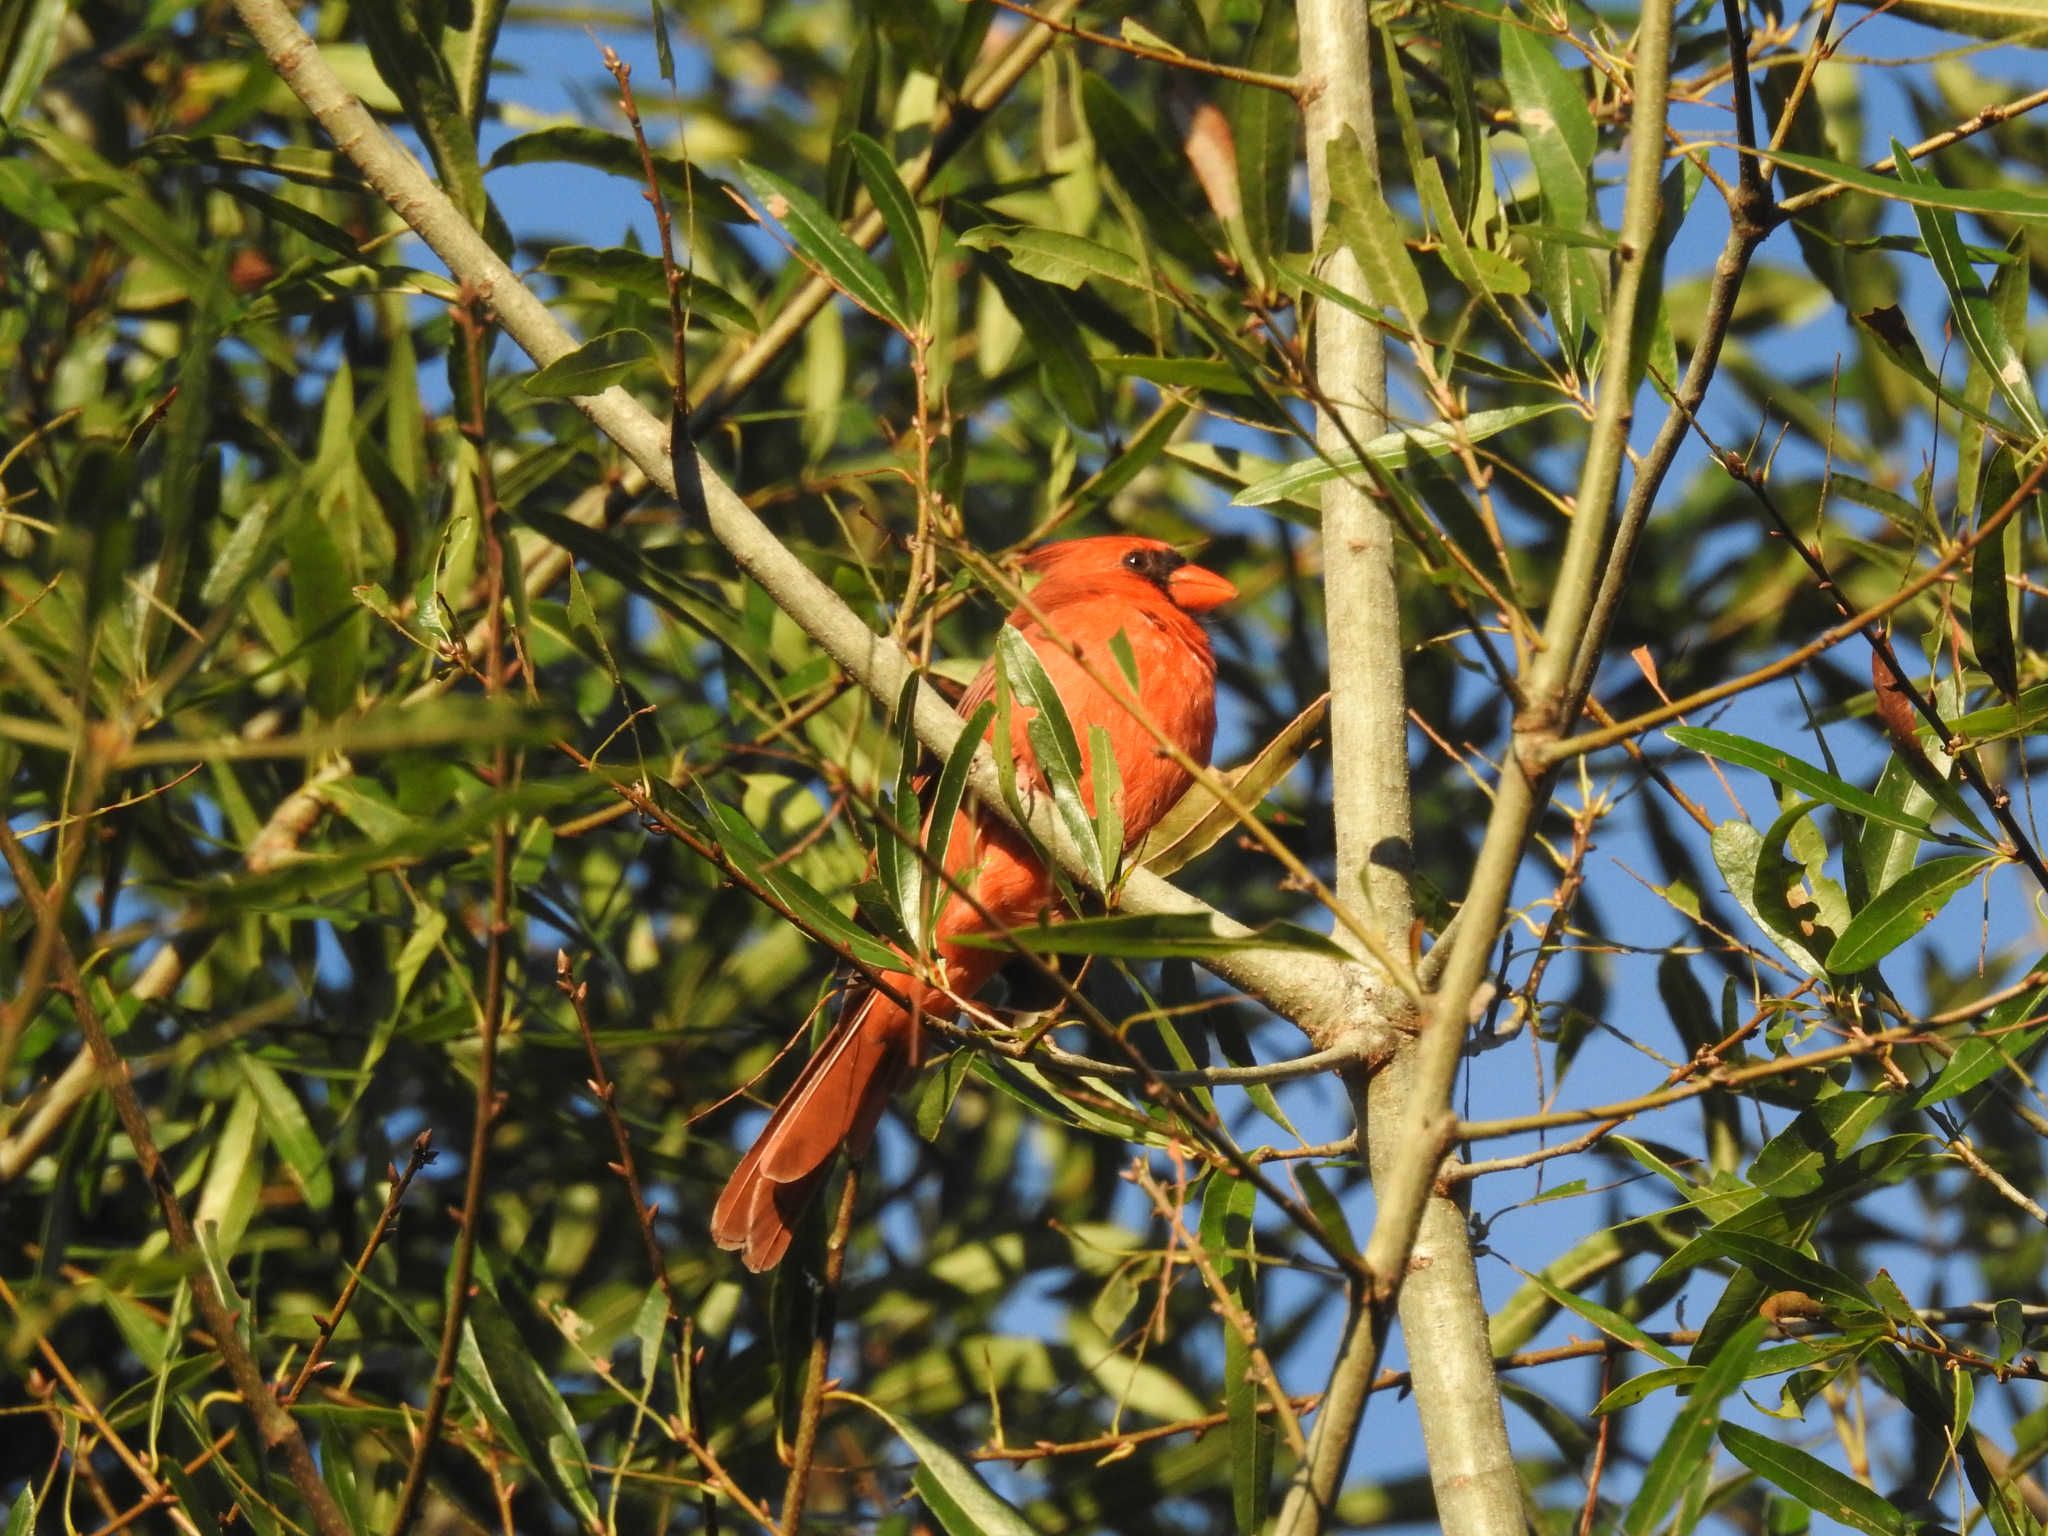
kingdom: Animalia
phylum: Chordata
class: Aves
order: Passeriformes
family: Cardinalidae
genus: Cardinalis
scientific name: Cardinalis cardinalis
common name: Northern cardinal
